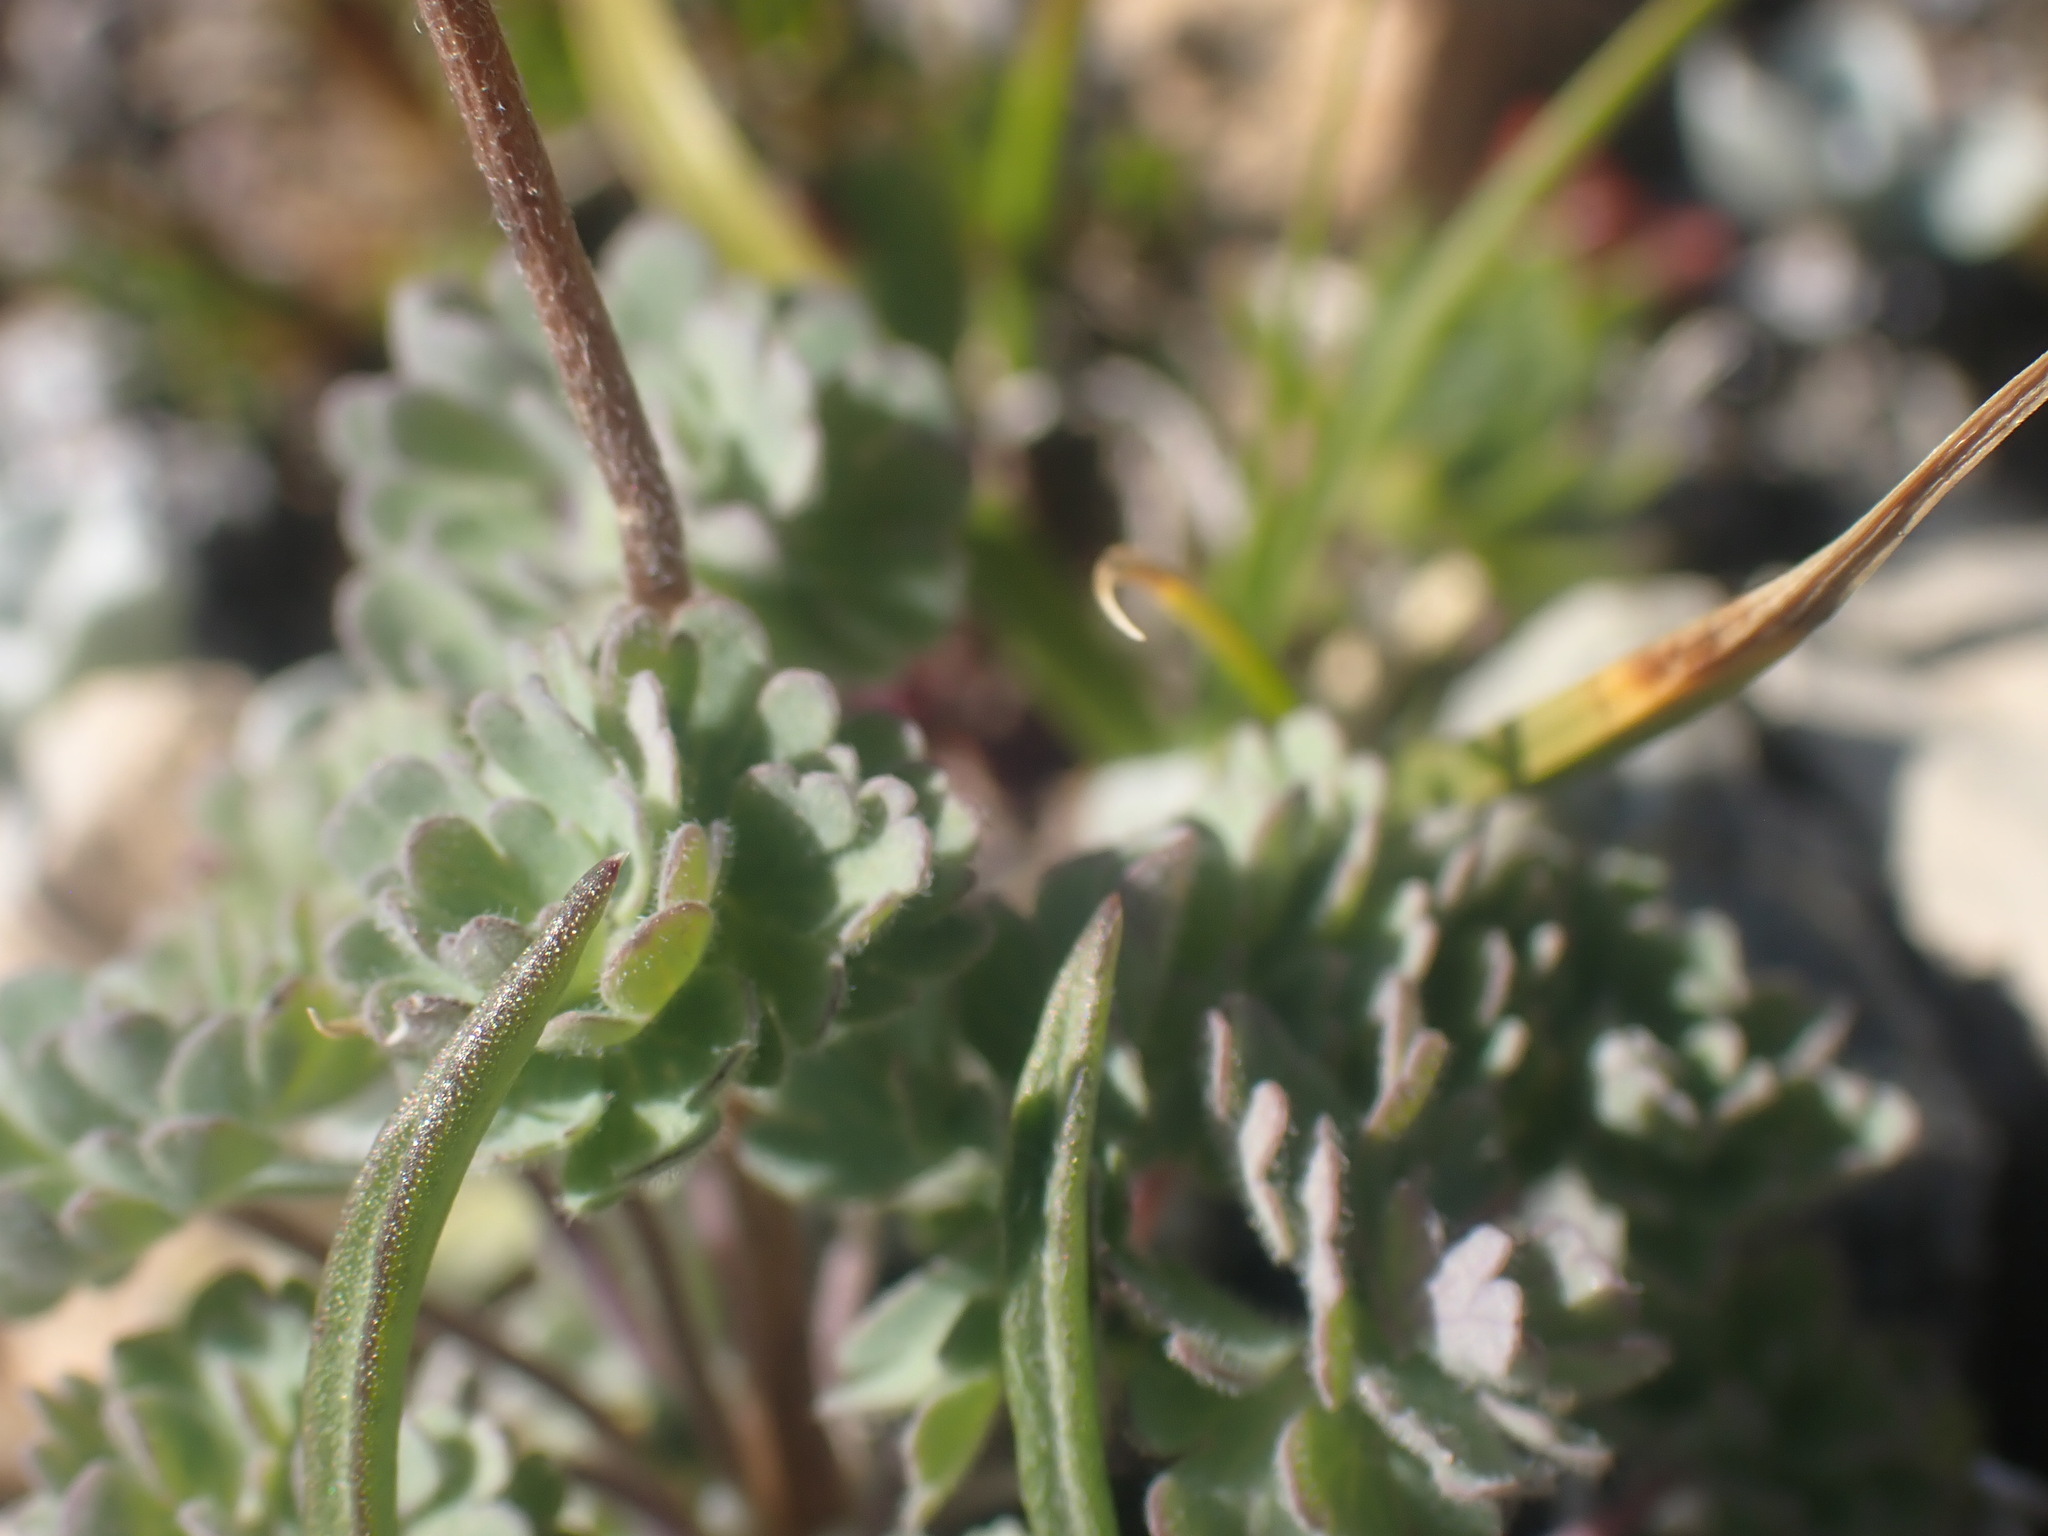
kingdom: Plantae
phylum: Tracheophyta
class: Magnoliopsida
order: Ranunculales
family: Ranunculaceae
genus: Aquilegia
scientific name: Aquilegia jonesii
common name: Jones' columbine
